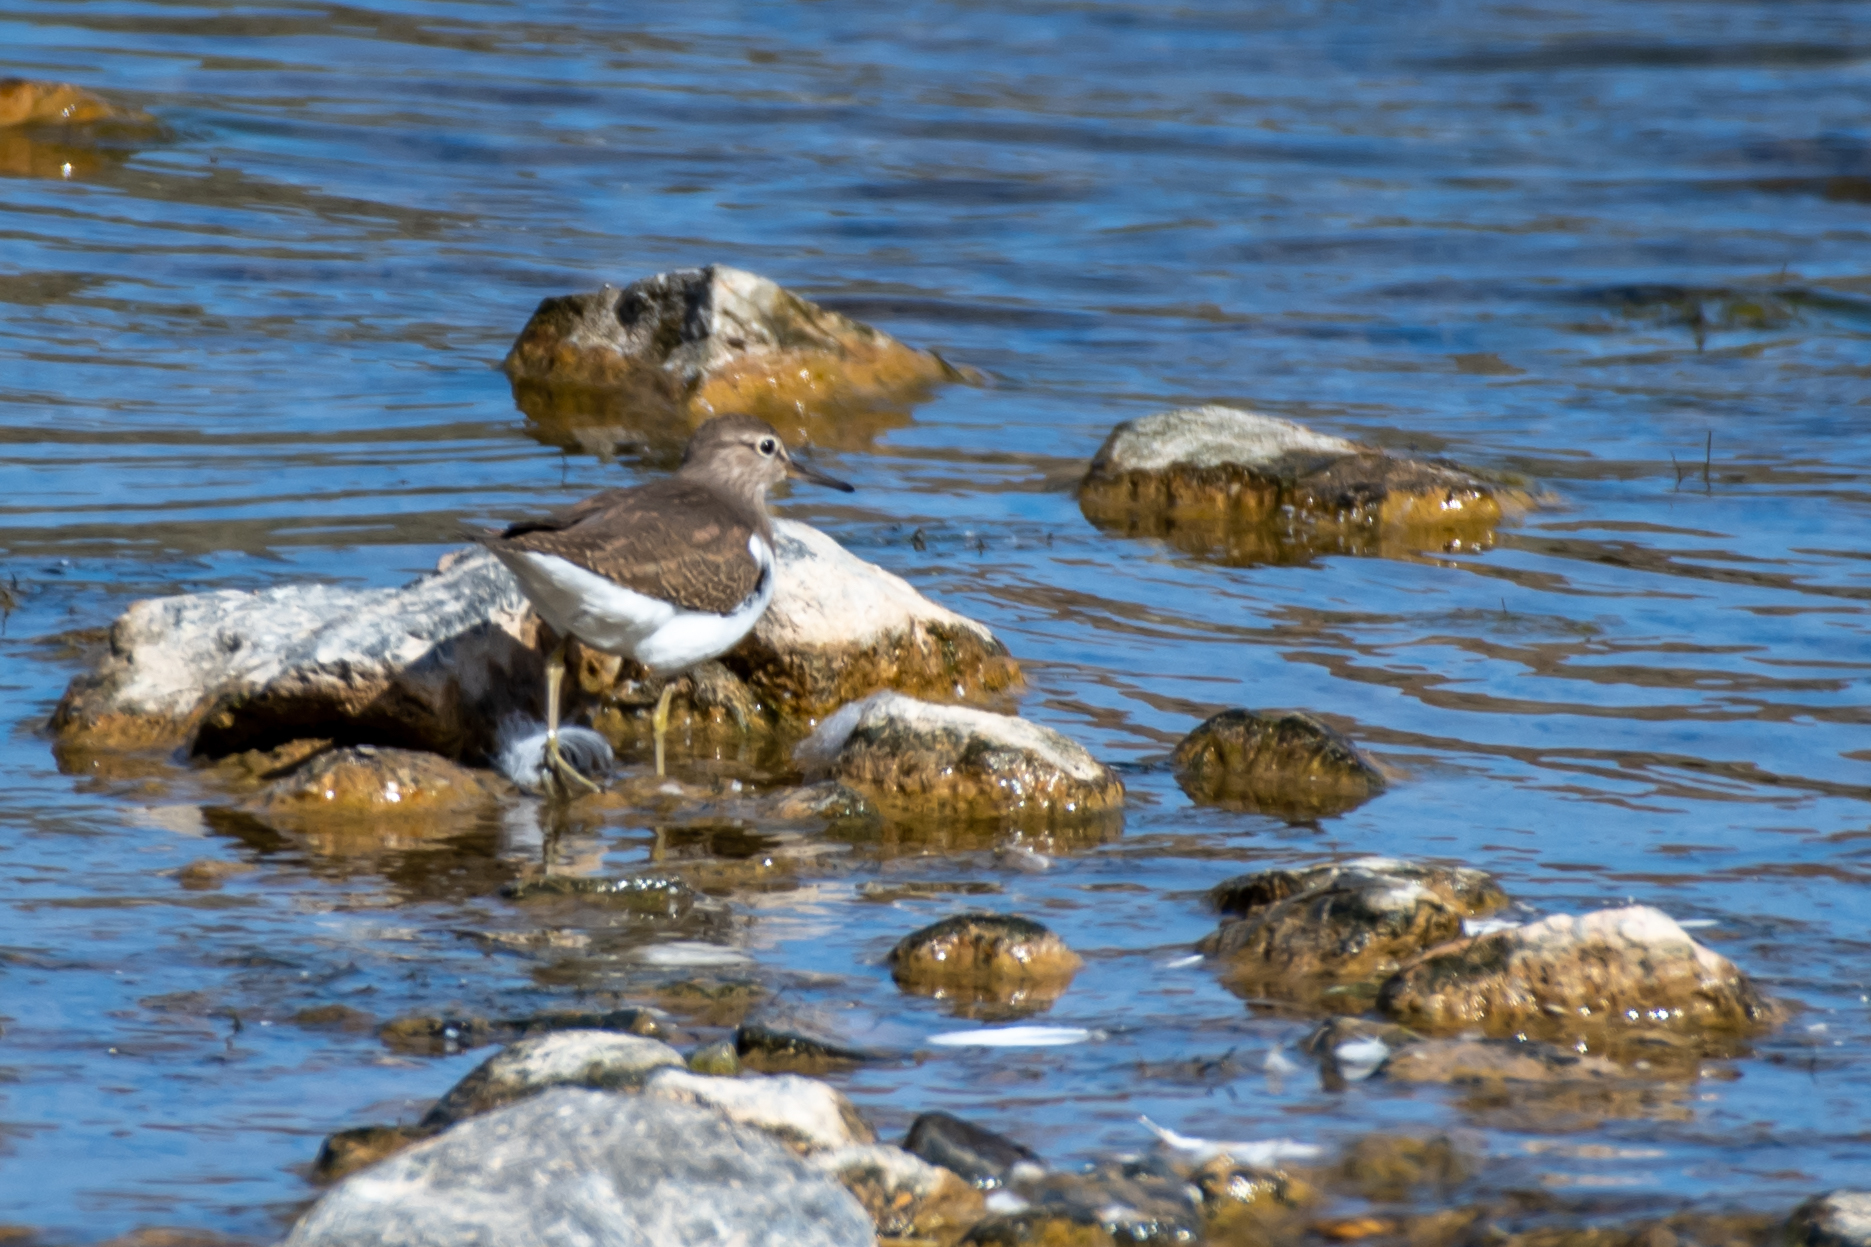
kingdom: Animalia
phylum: Chordata
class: Aves
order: Charadriiformes
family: Scolopacidae
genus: Actitis
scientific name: Actitis hypoleucos
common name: Common sandpiper
